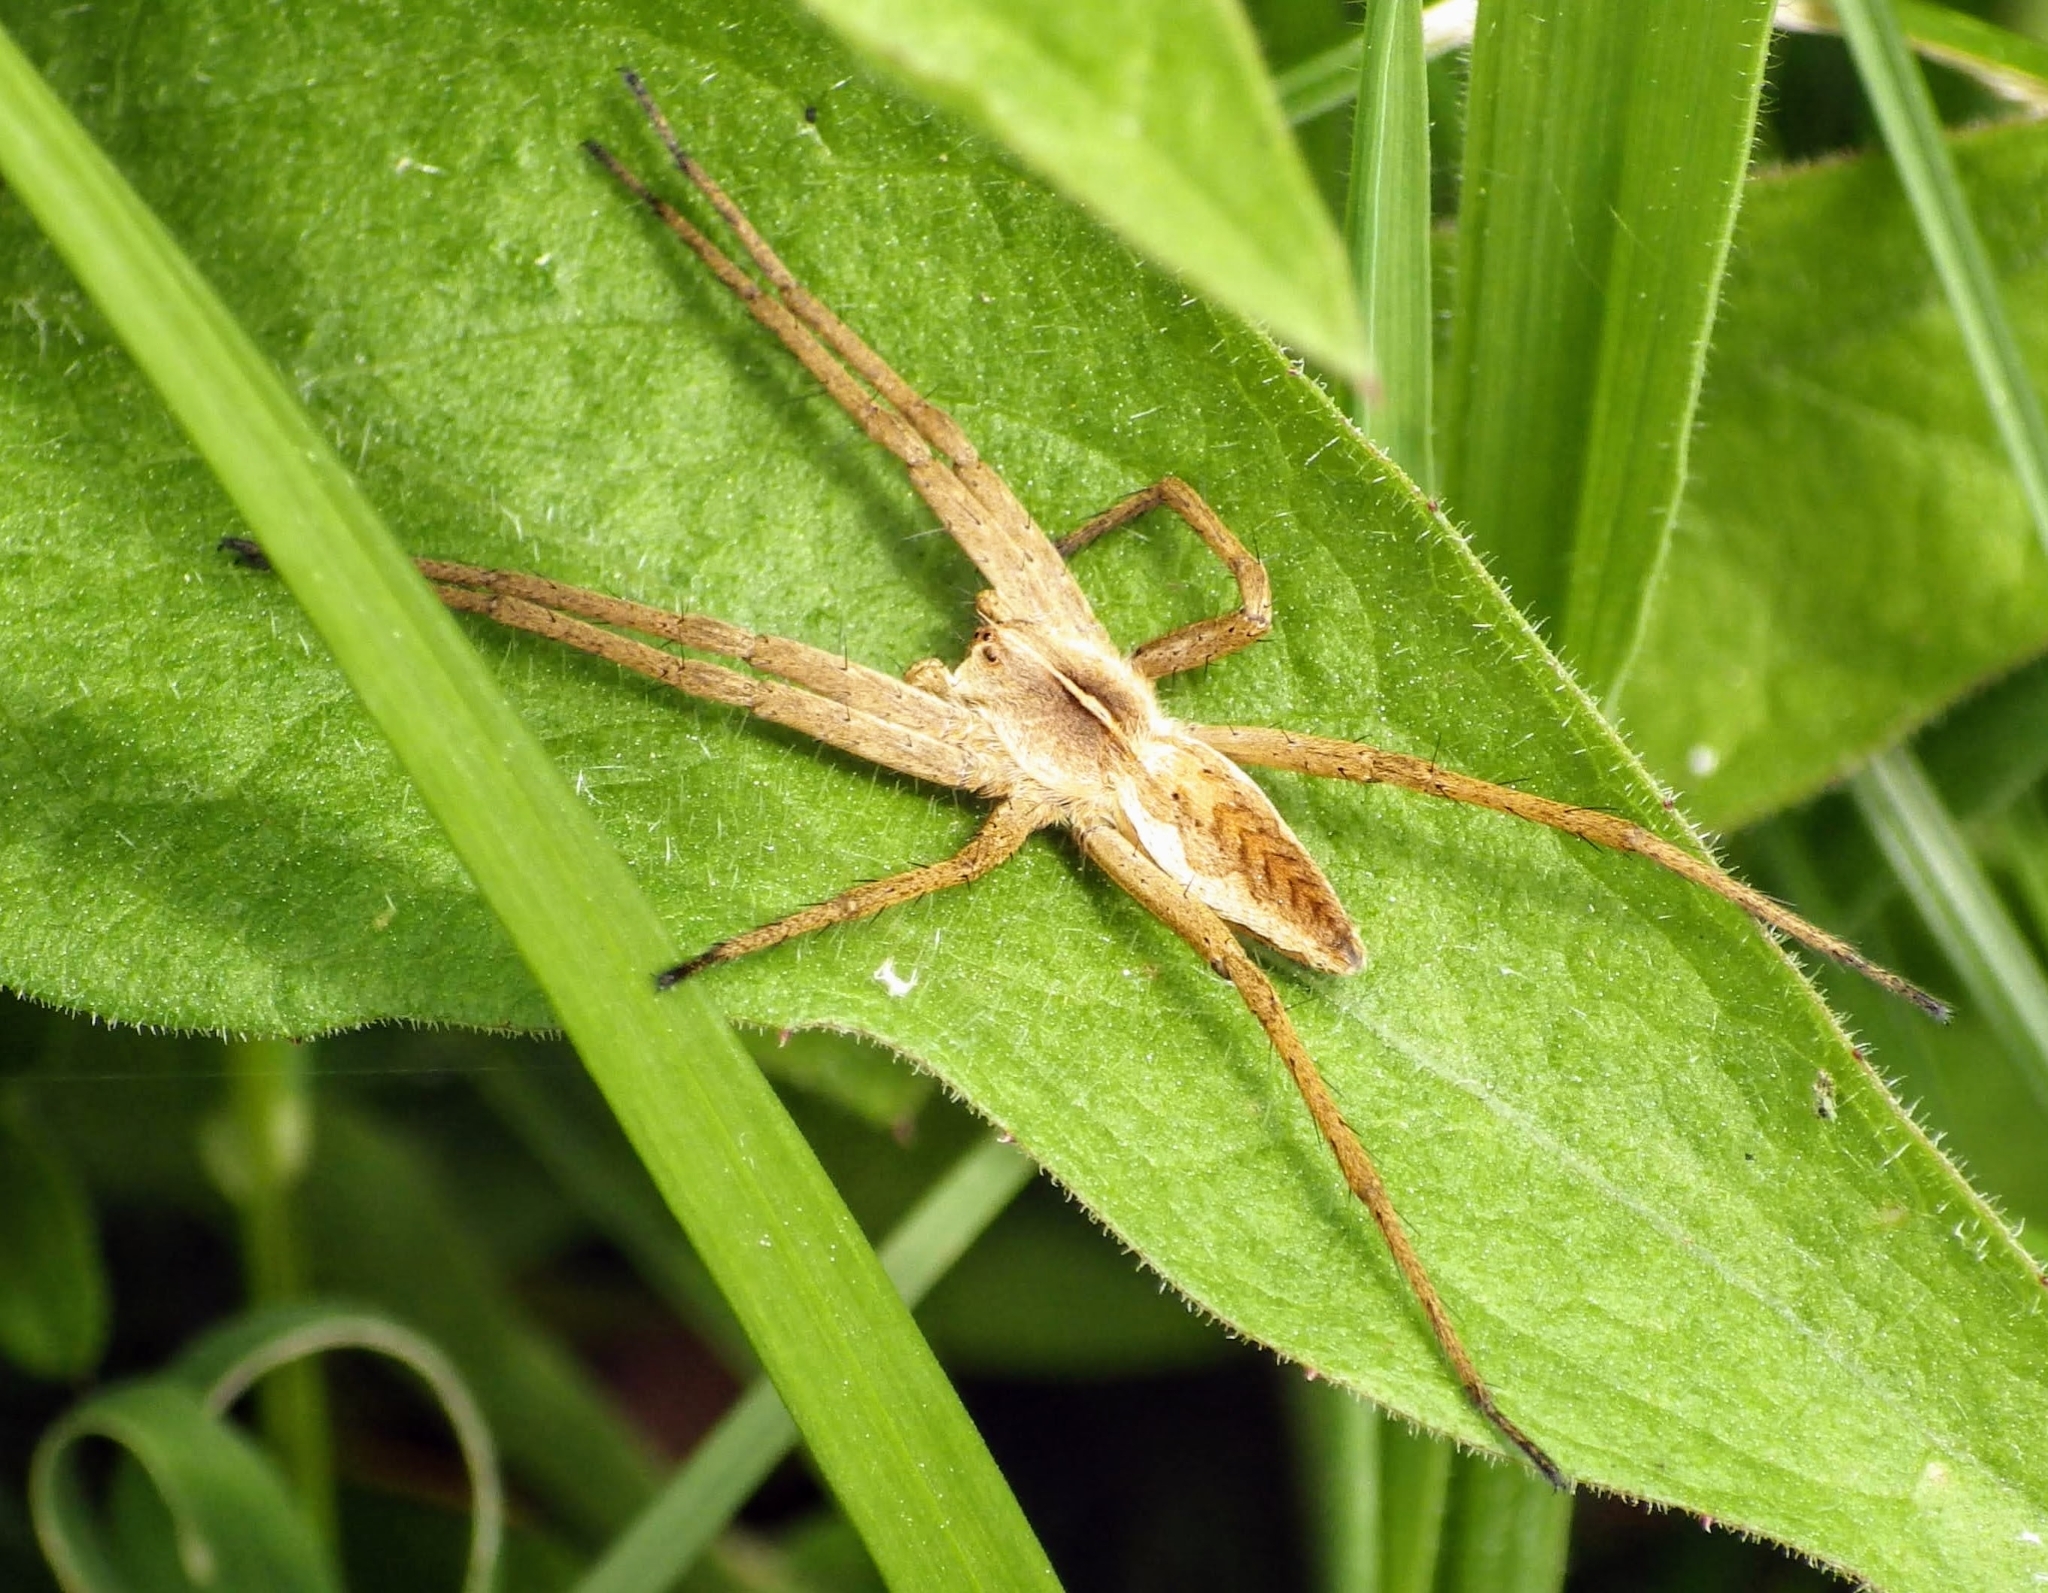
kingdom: Animalia
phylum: Arthropoda
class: Arachnida
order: Araneae
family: Pisauridae
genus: Pisaura
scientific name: Pisaura mirabilis
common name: Tent spider
